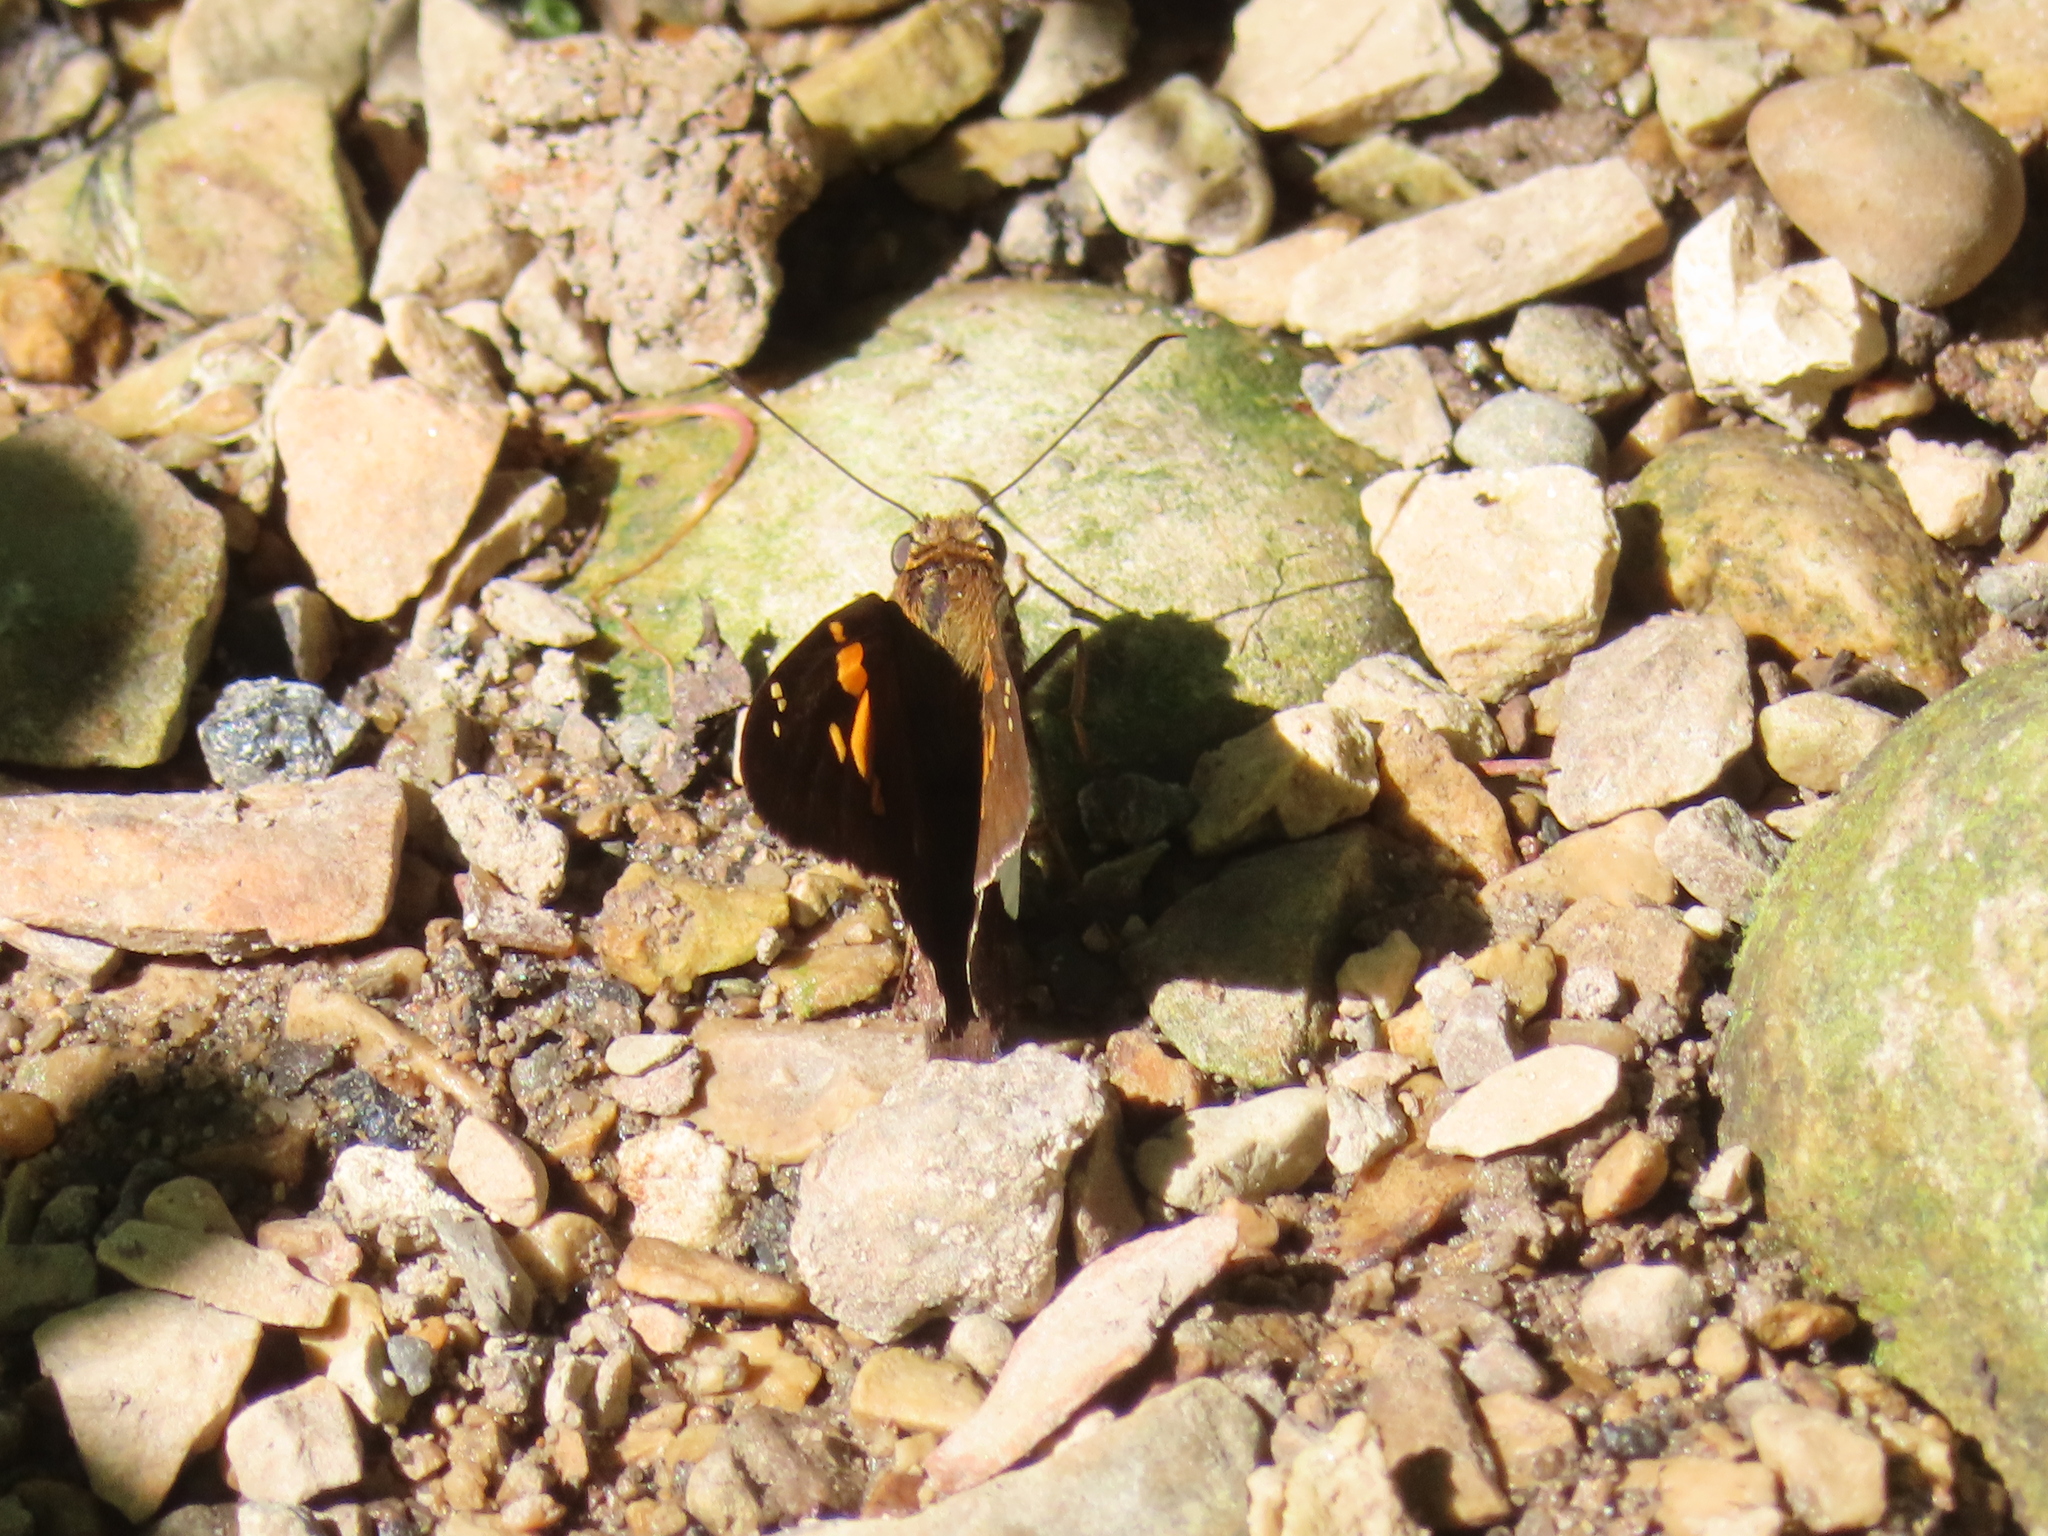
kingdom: Animalia
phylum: Arthropoda
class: Insecta
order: Lepidoptera
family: Hesperiidae
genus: Epargyreus
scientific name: Epargyreus clarus
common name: Silver-spotted skipper
